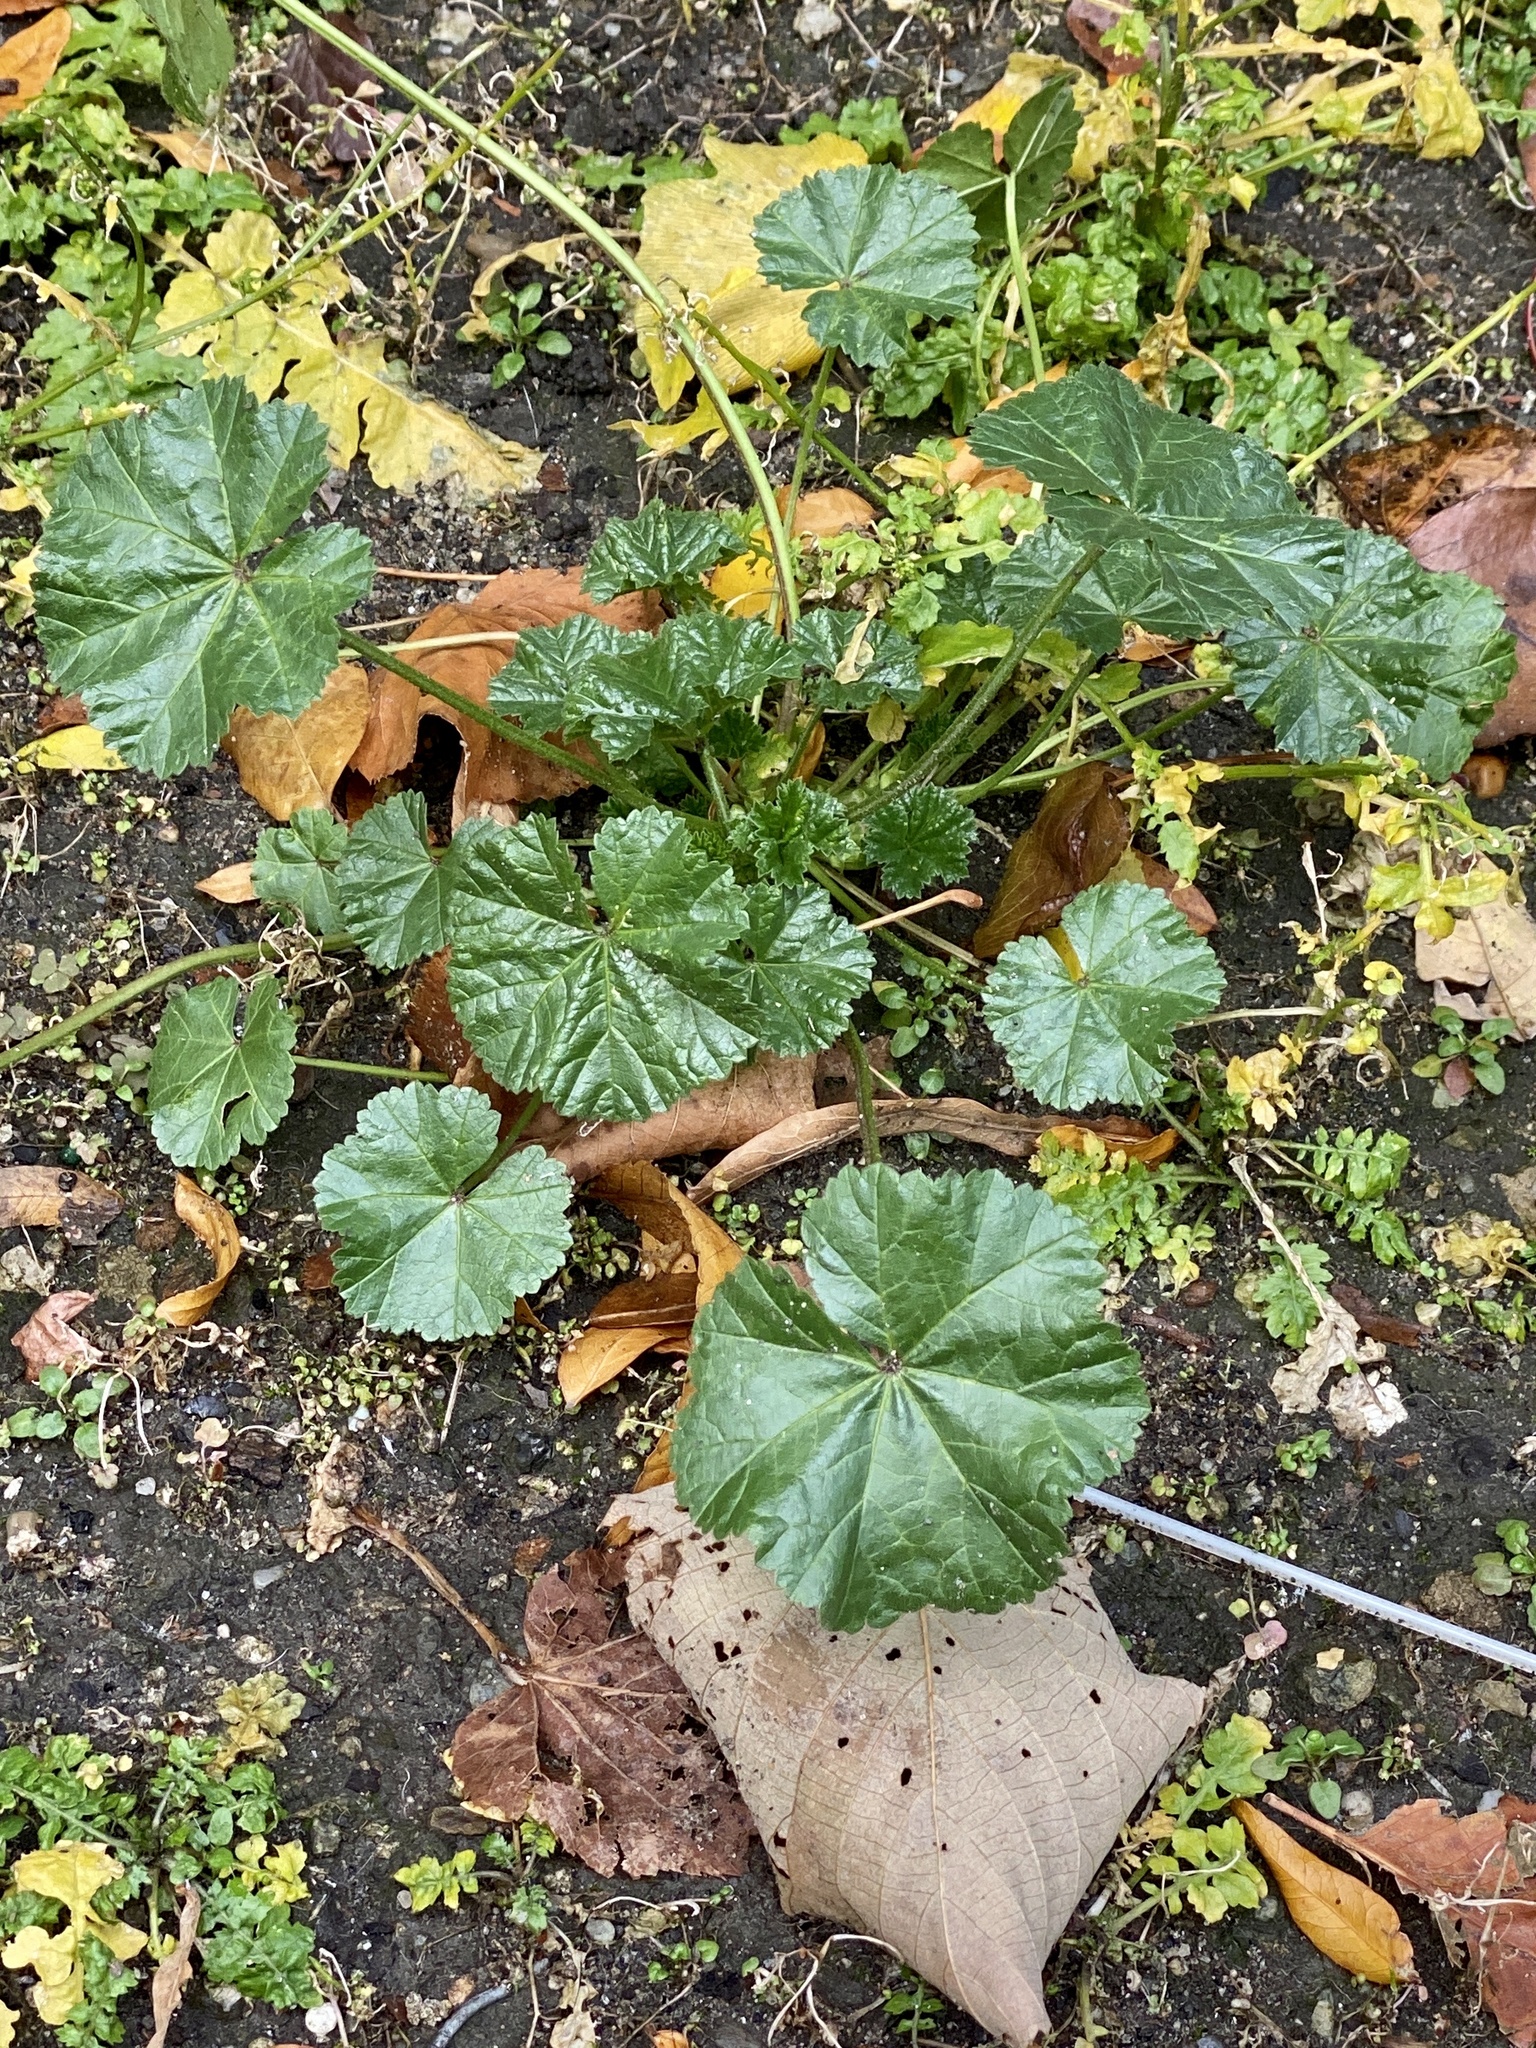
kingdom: Plantae
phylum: Tracheophyta
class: Magnoliopsida
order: Malvales
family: Malvaceae
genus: Malva
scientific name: Malva neglecta
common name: Common mallow
